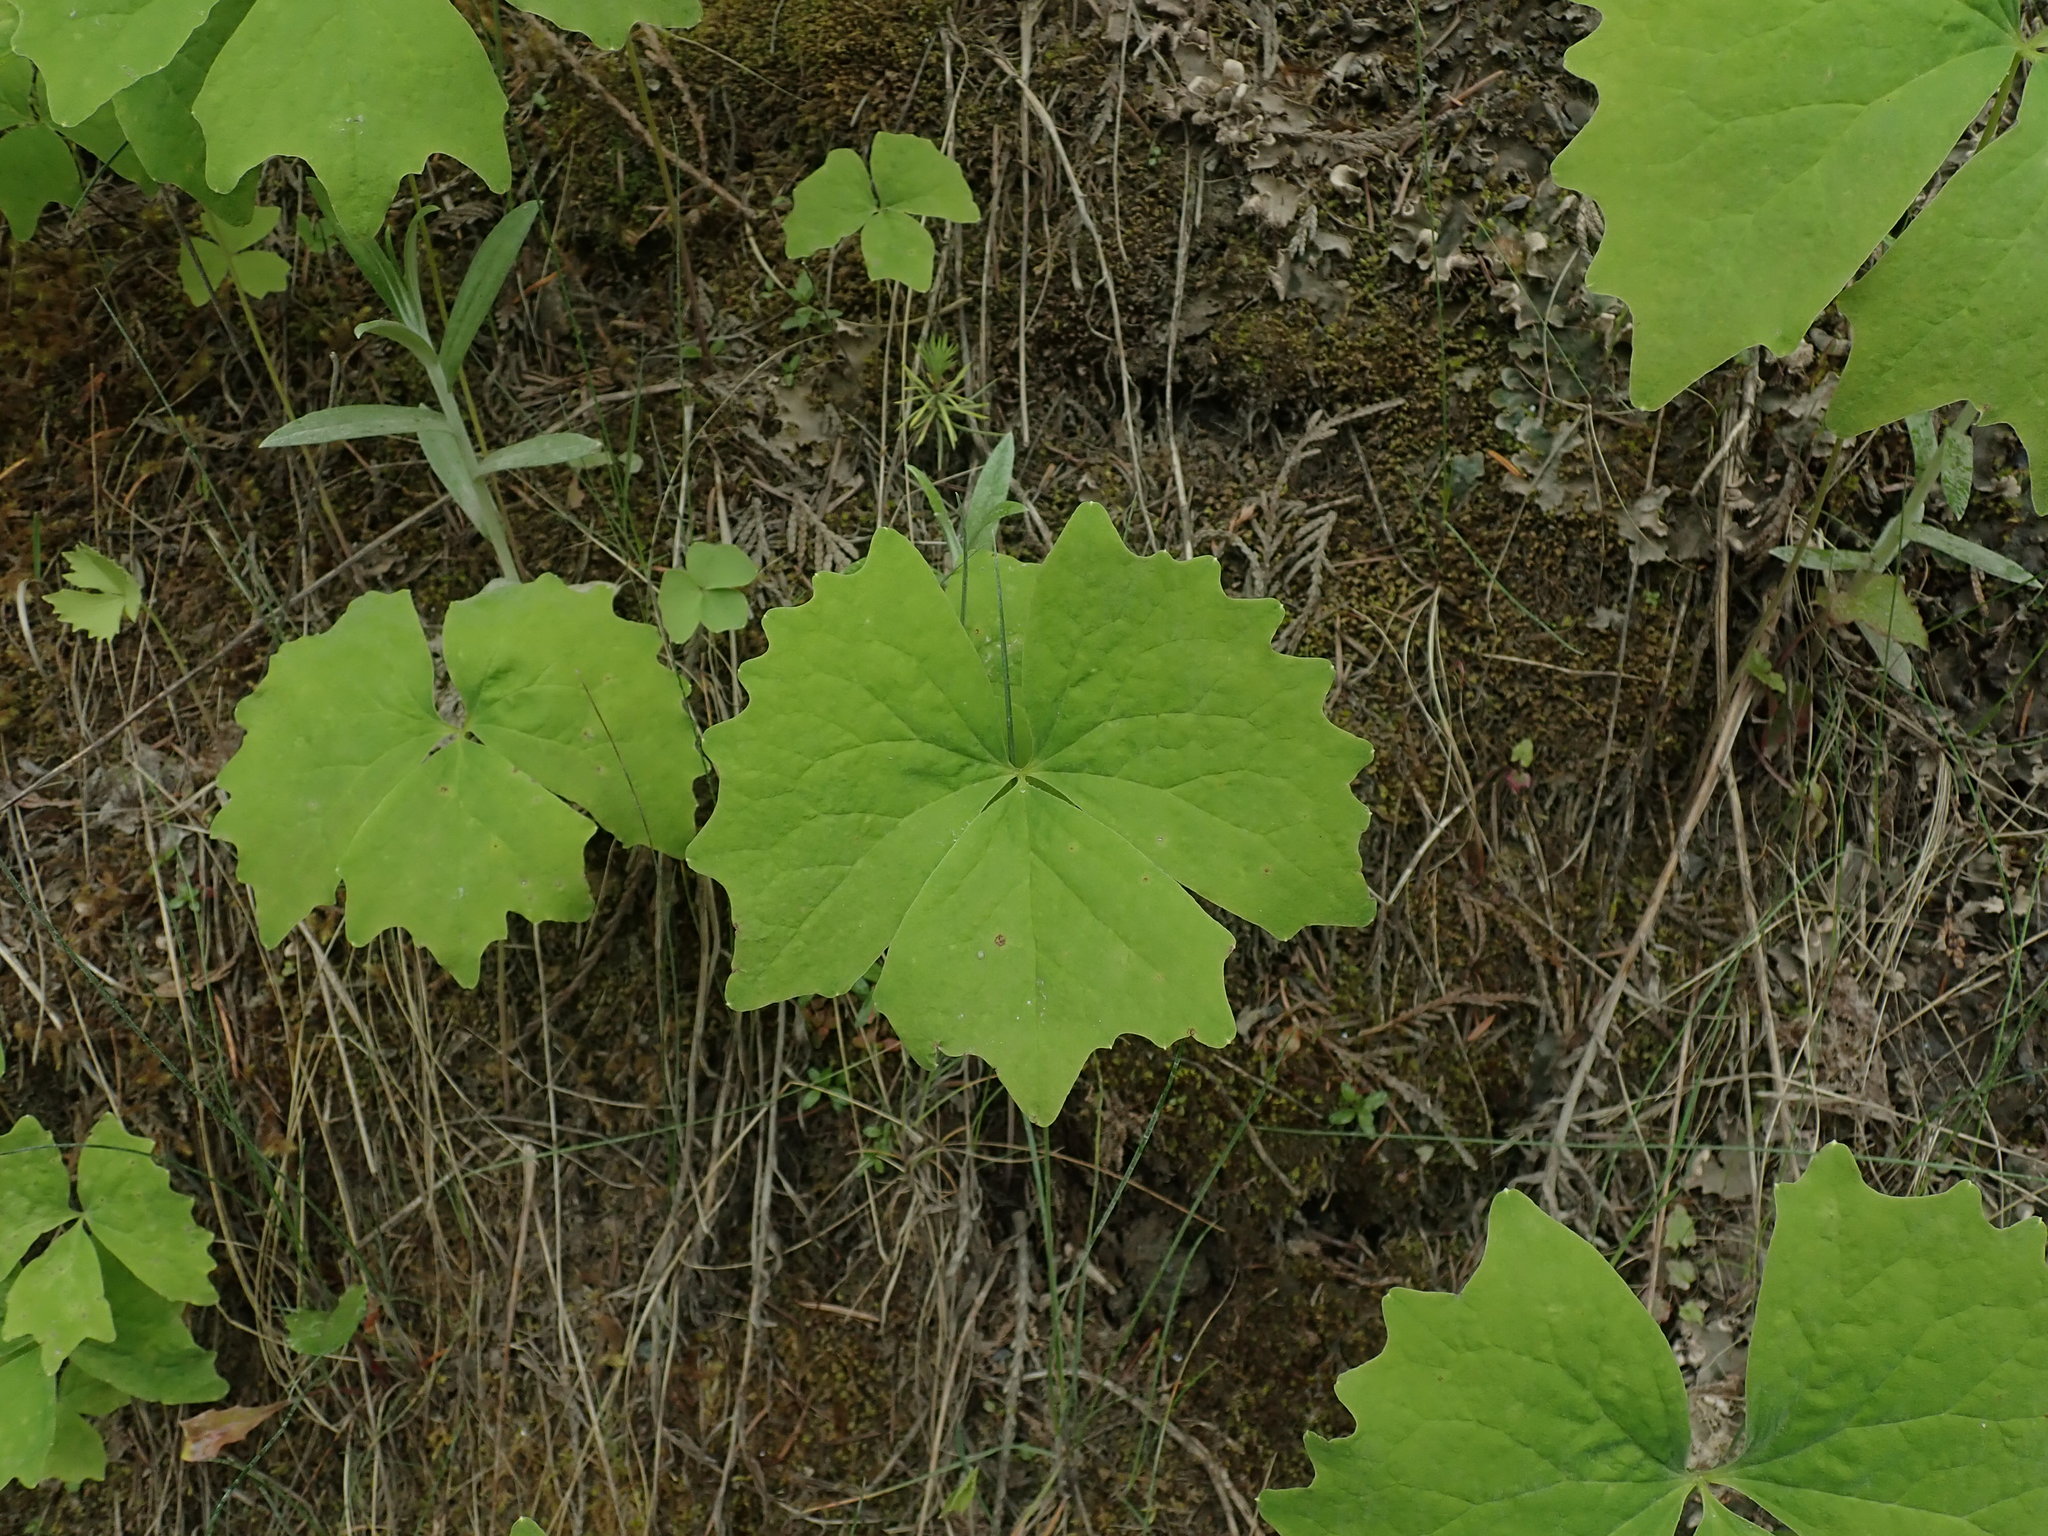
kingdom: Plantae
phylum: Tracheophyta
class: Magnoliopsida
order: Ranunculales
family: Berberidaceae
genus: Achlys
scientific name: Achlys triphylla
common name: Vanilla-leaf
